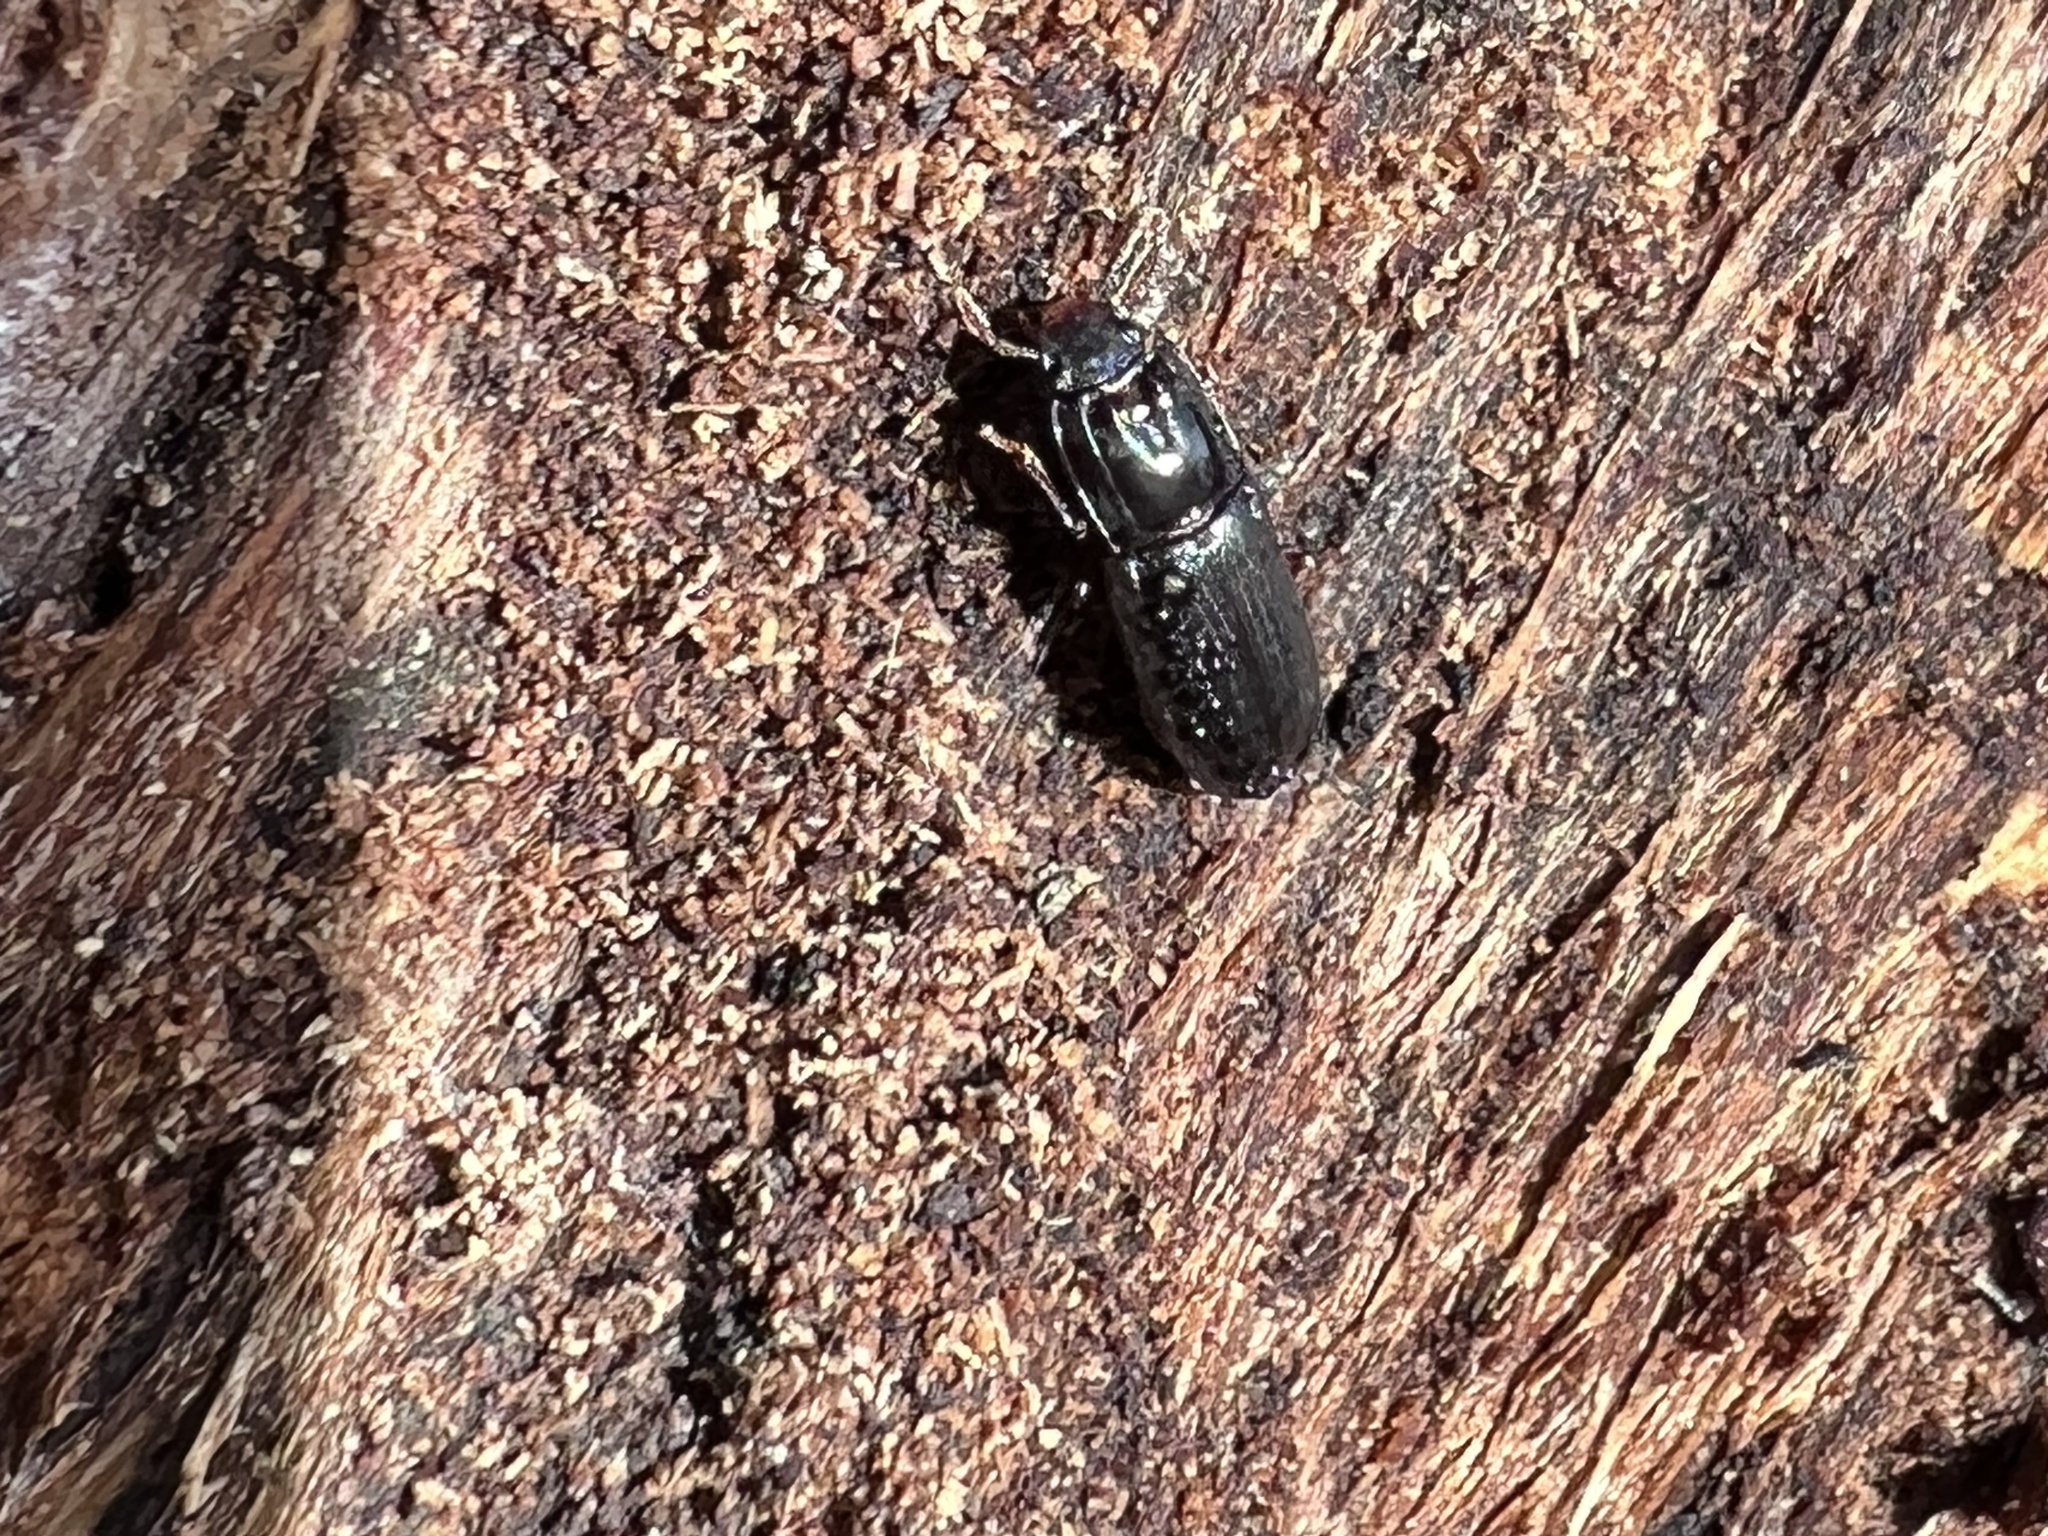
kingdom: Animalia
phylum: Arthropoda
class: Insecta
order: Coleoptera
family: Zopheridae
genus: Aulonium
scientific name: Aulonium parallelopipedum
